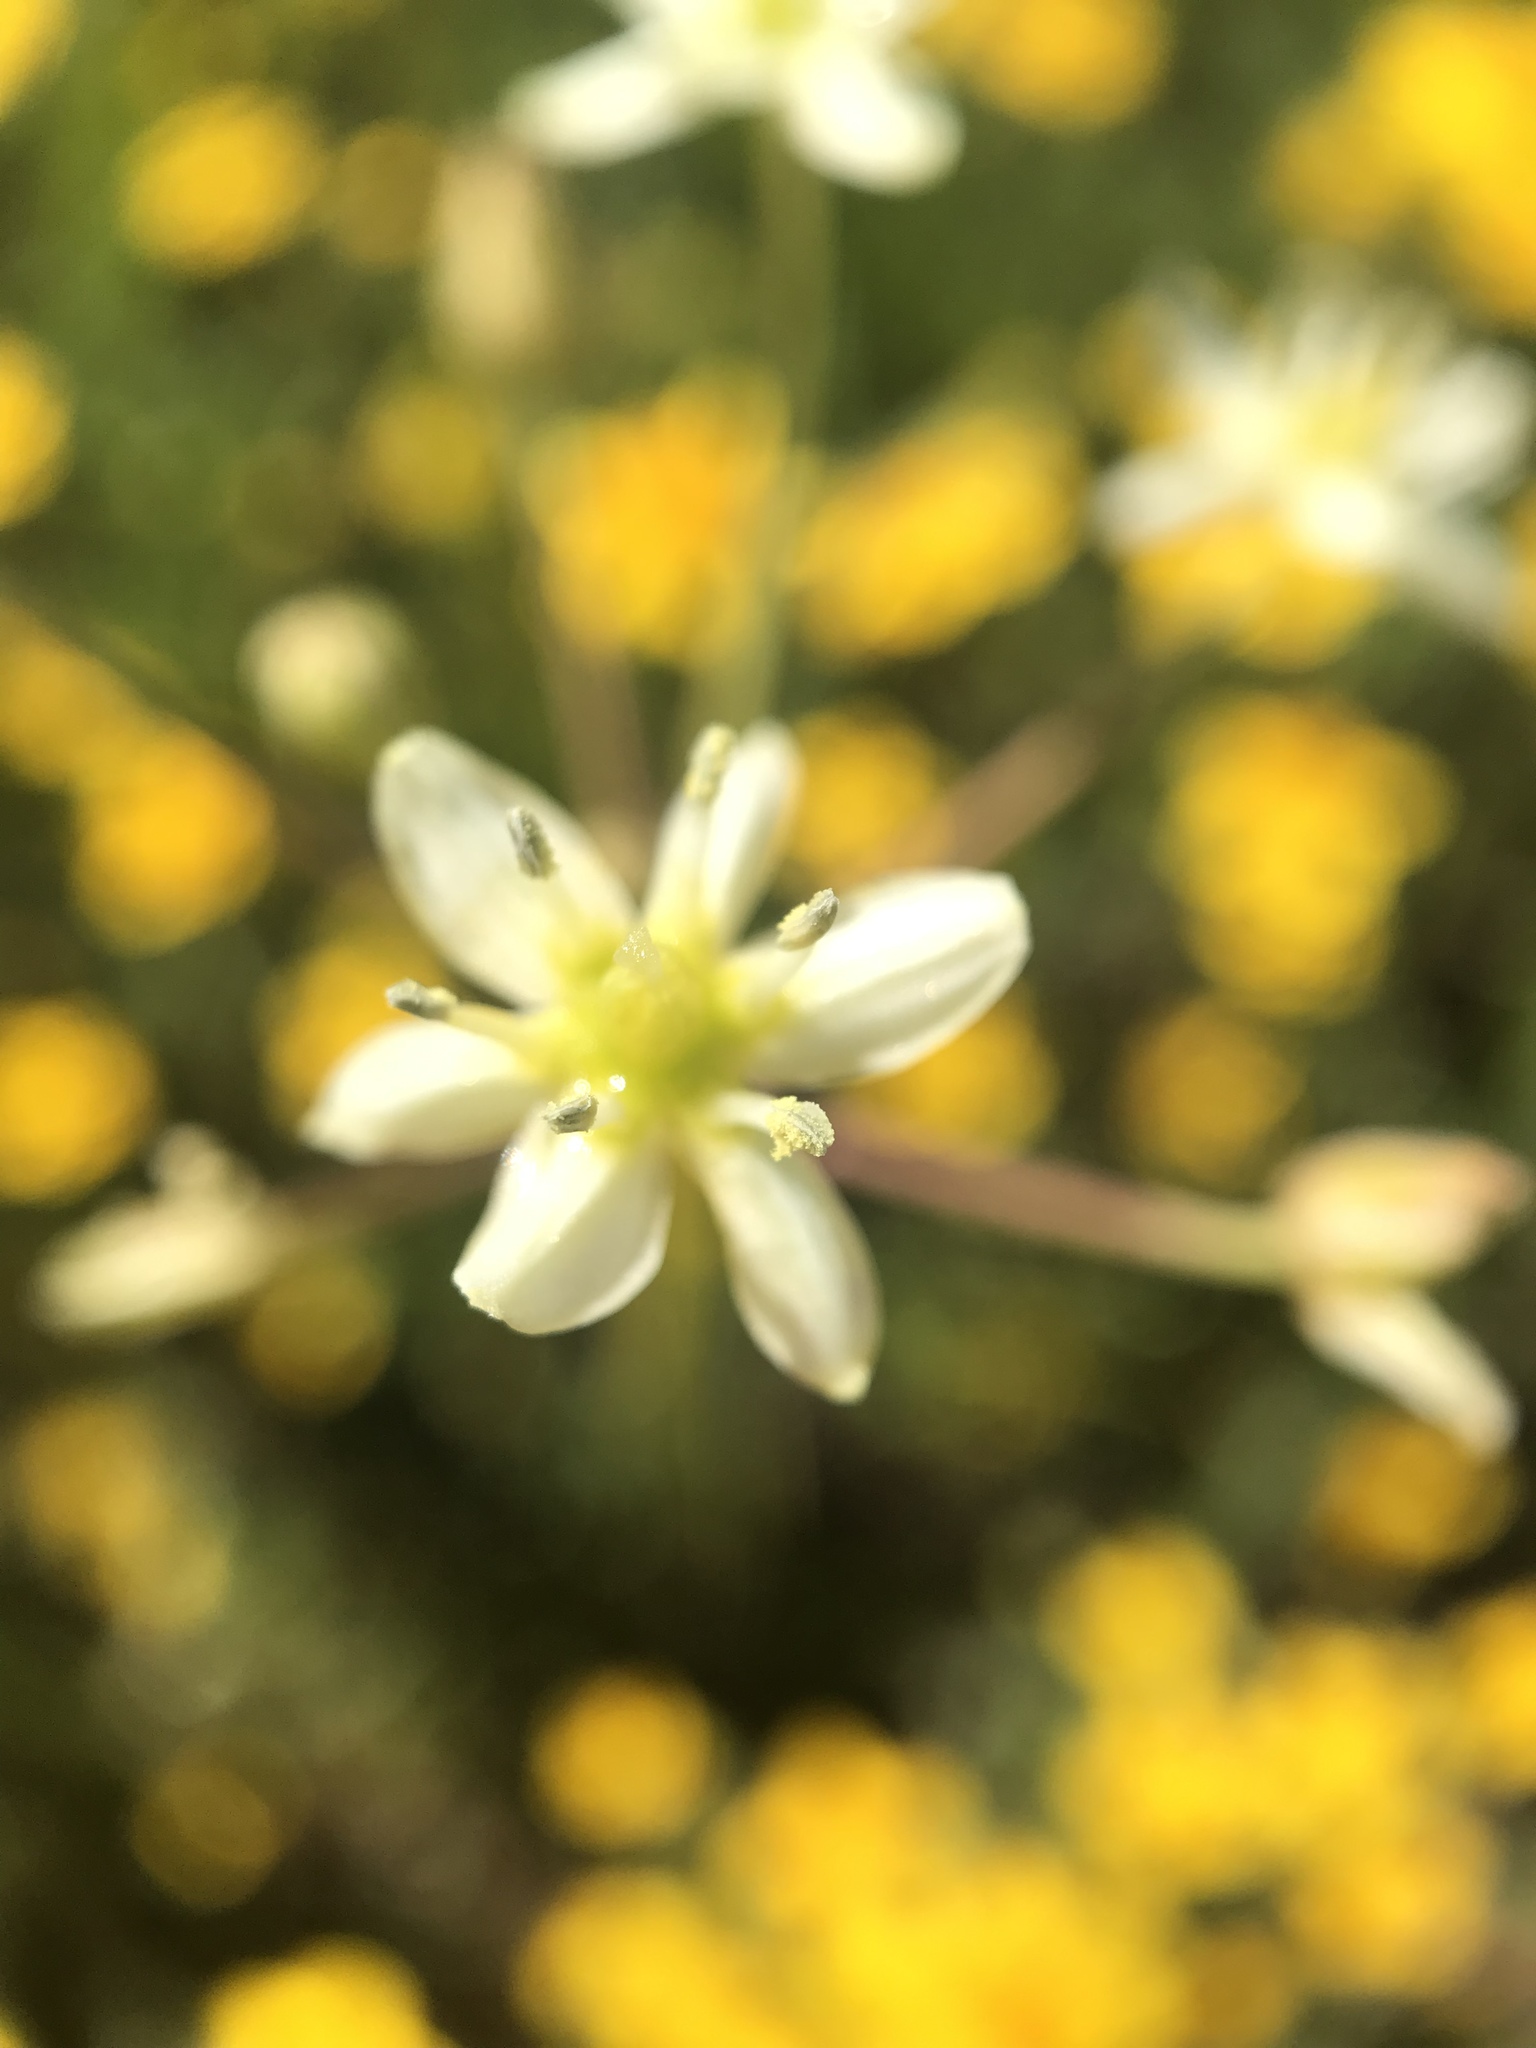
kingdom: Plantae
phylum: Tracheophyta
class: Liliopsida
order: Asparagales
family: Asparagaceae
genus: Muilla
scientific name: Muilla maritima
